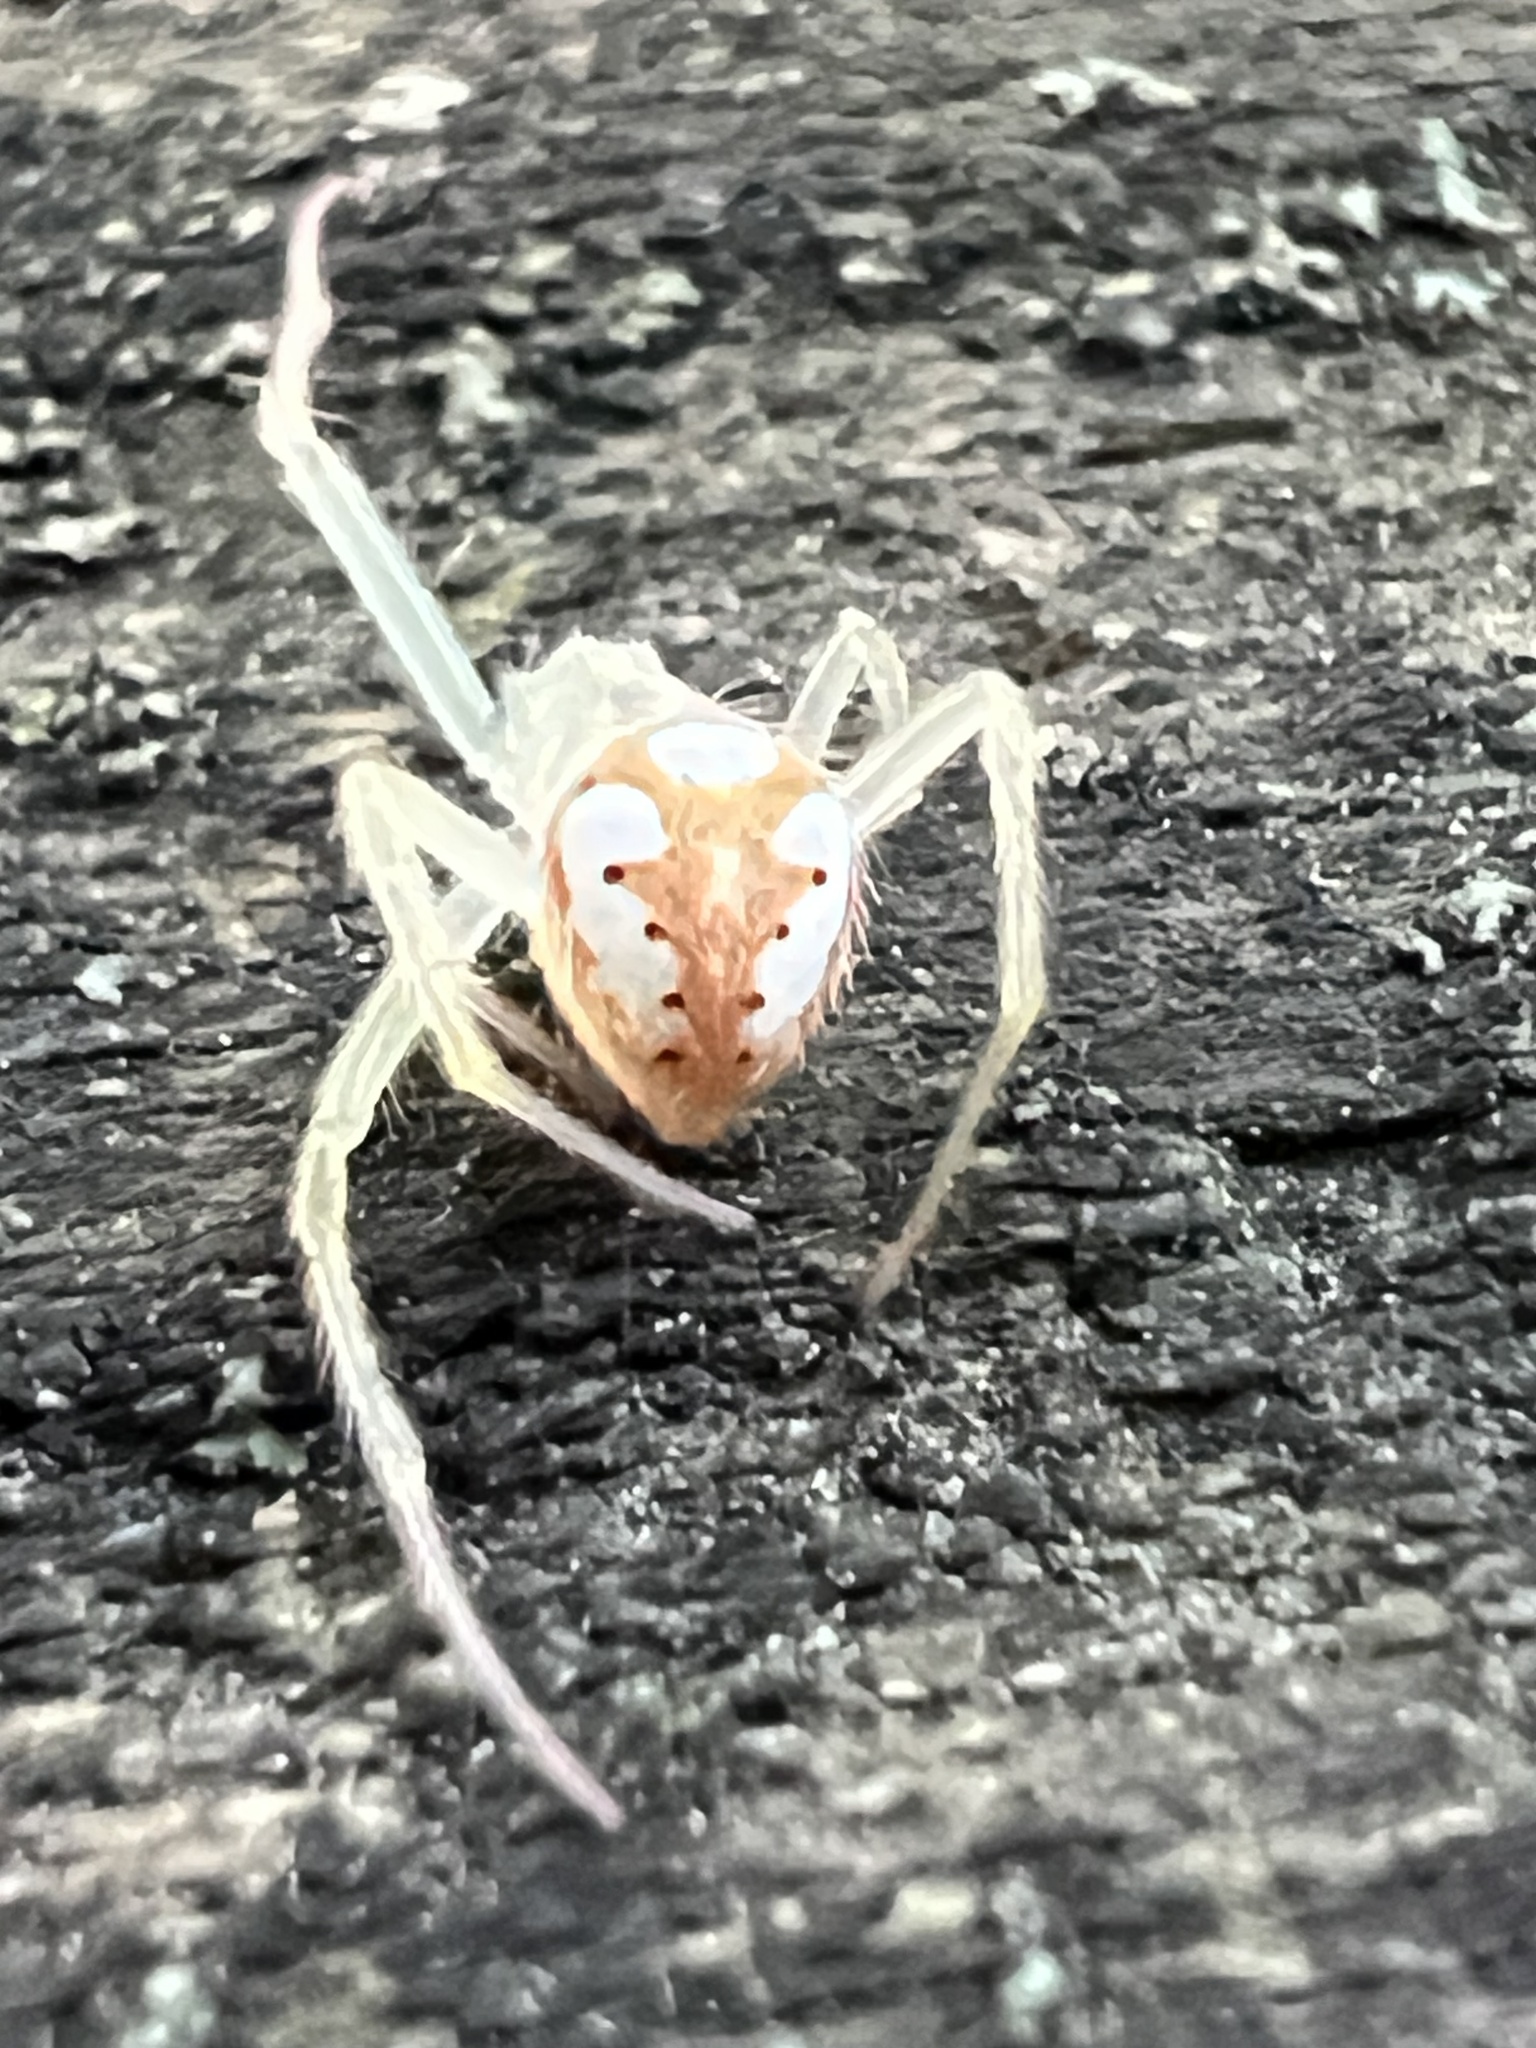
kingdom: Animalia
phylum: Arthropoda
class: Arachnida
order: Araneae
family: Araneidae
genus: Araneus
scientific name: Araneus guttulatus
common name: Red-backed orbweaver
